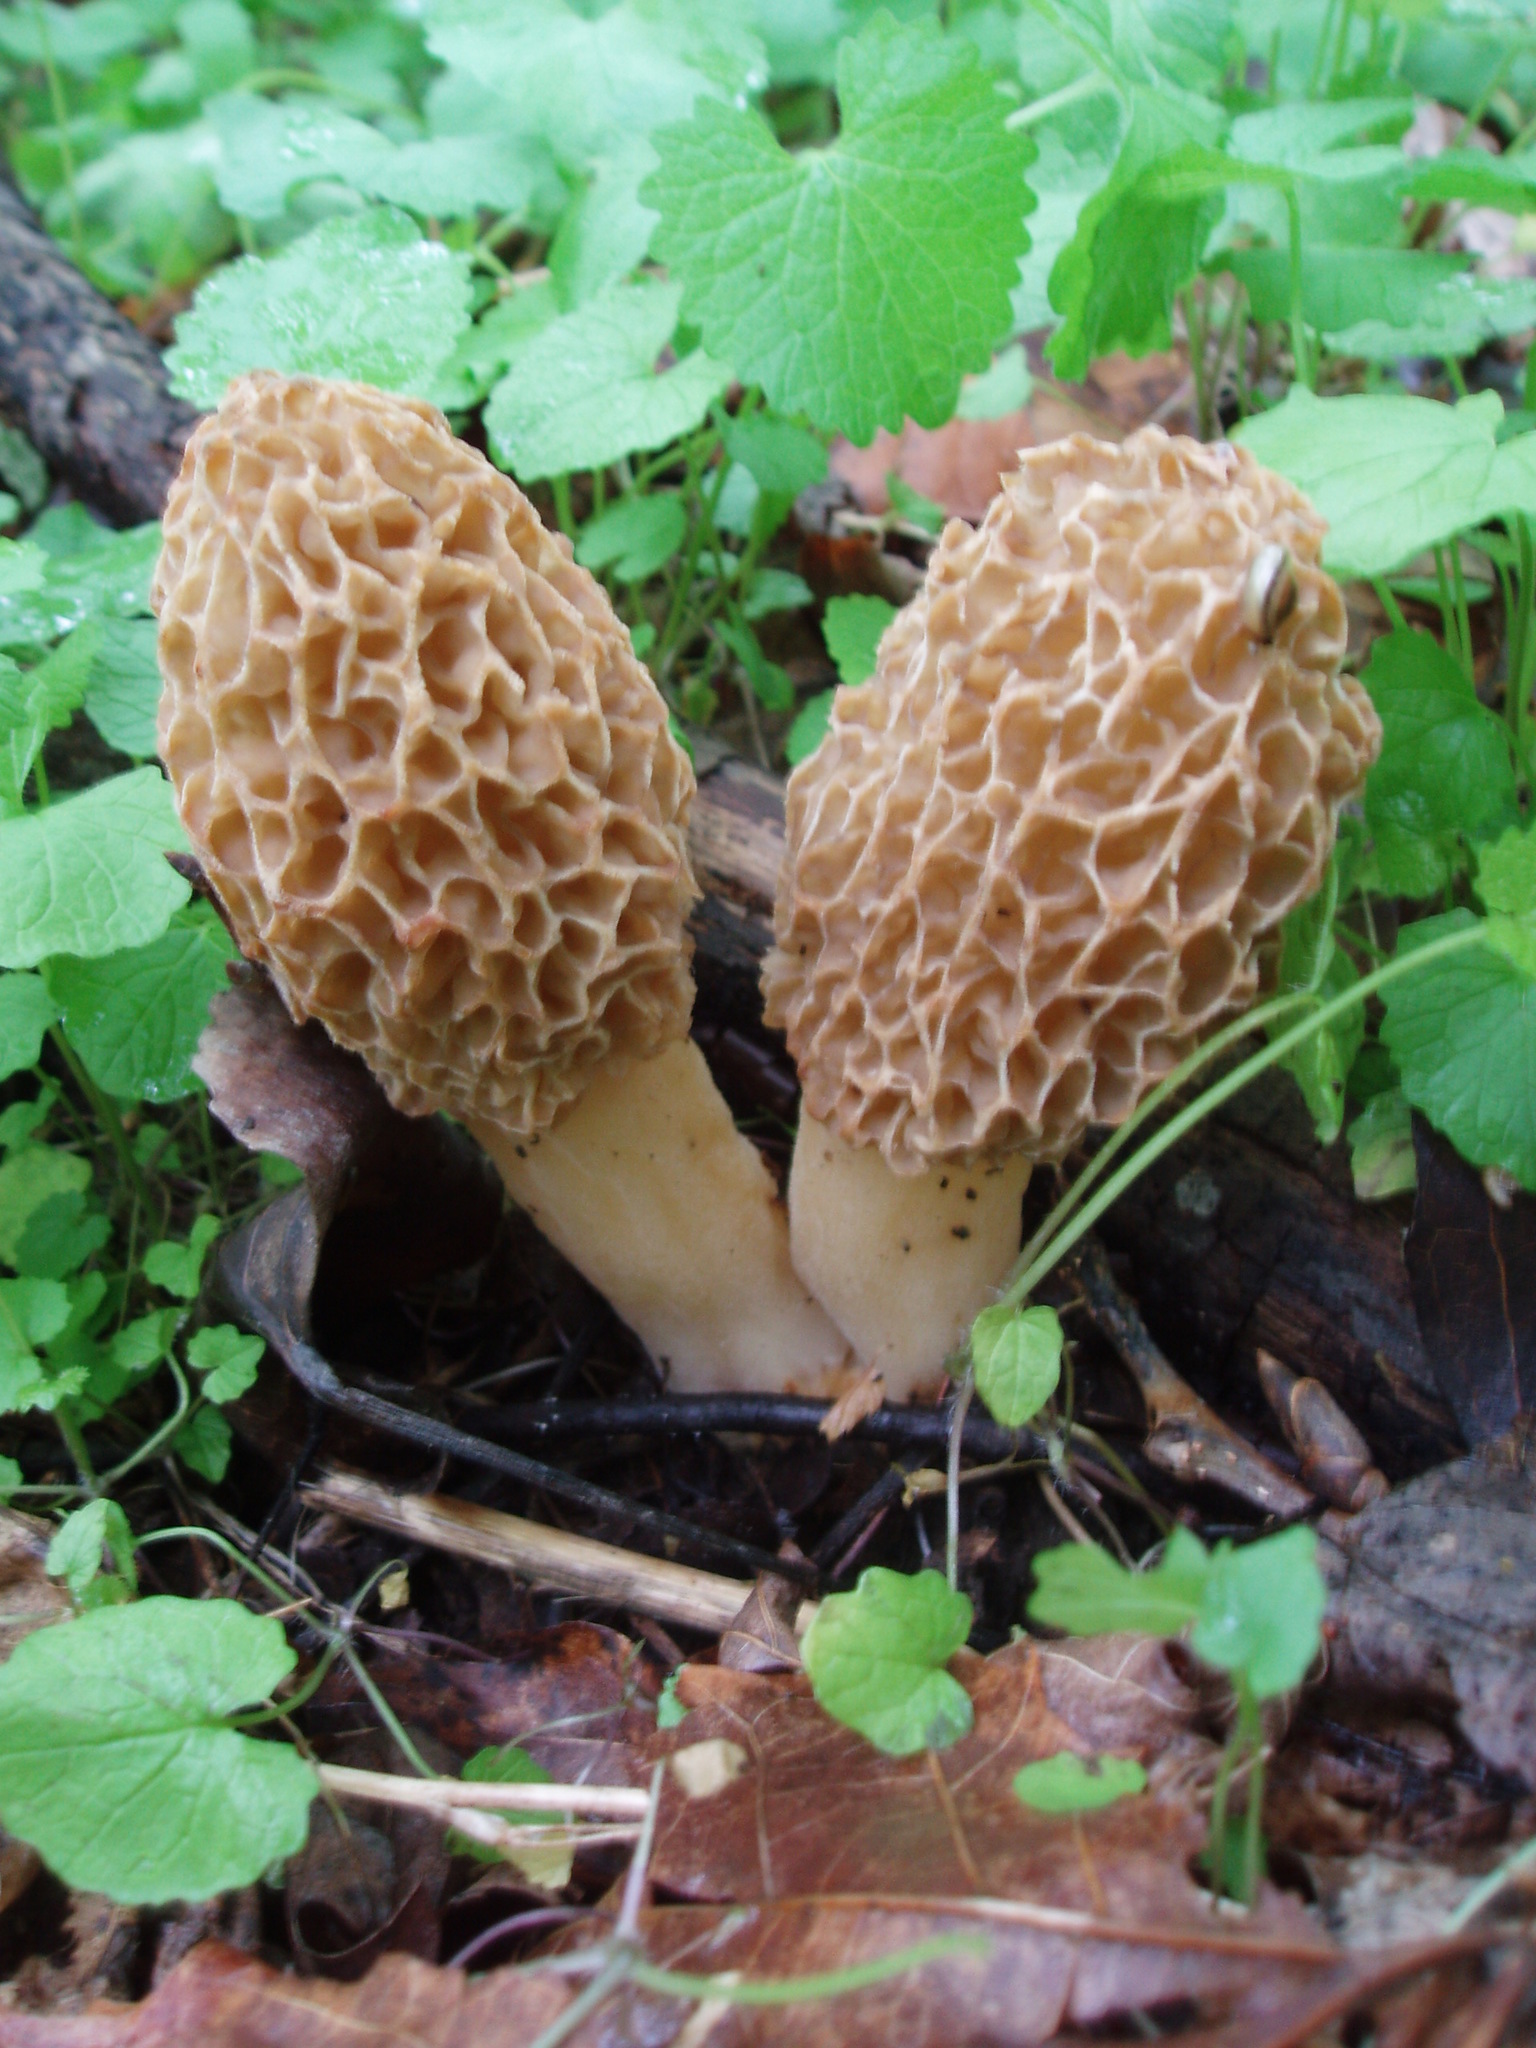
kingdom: Fungi
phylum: Ascomycota
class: Pezizomycetes
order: Pezizales
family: Morchellaceae
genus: Morchella
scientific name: Morchella americana
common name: White morel
